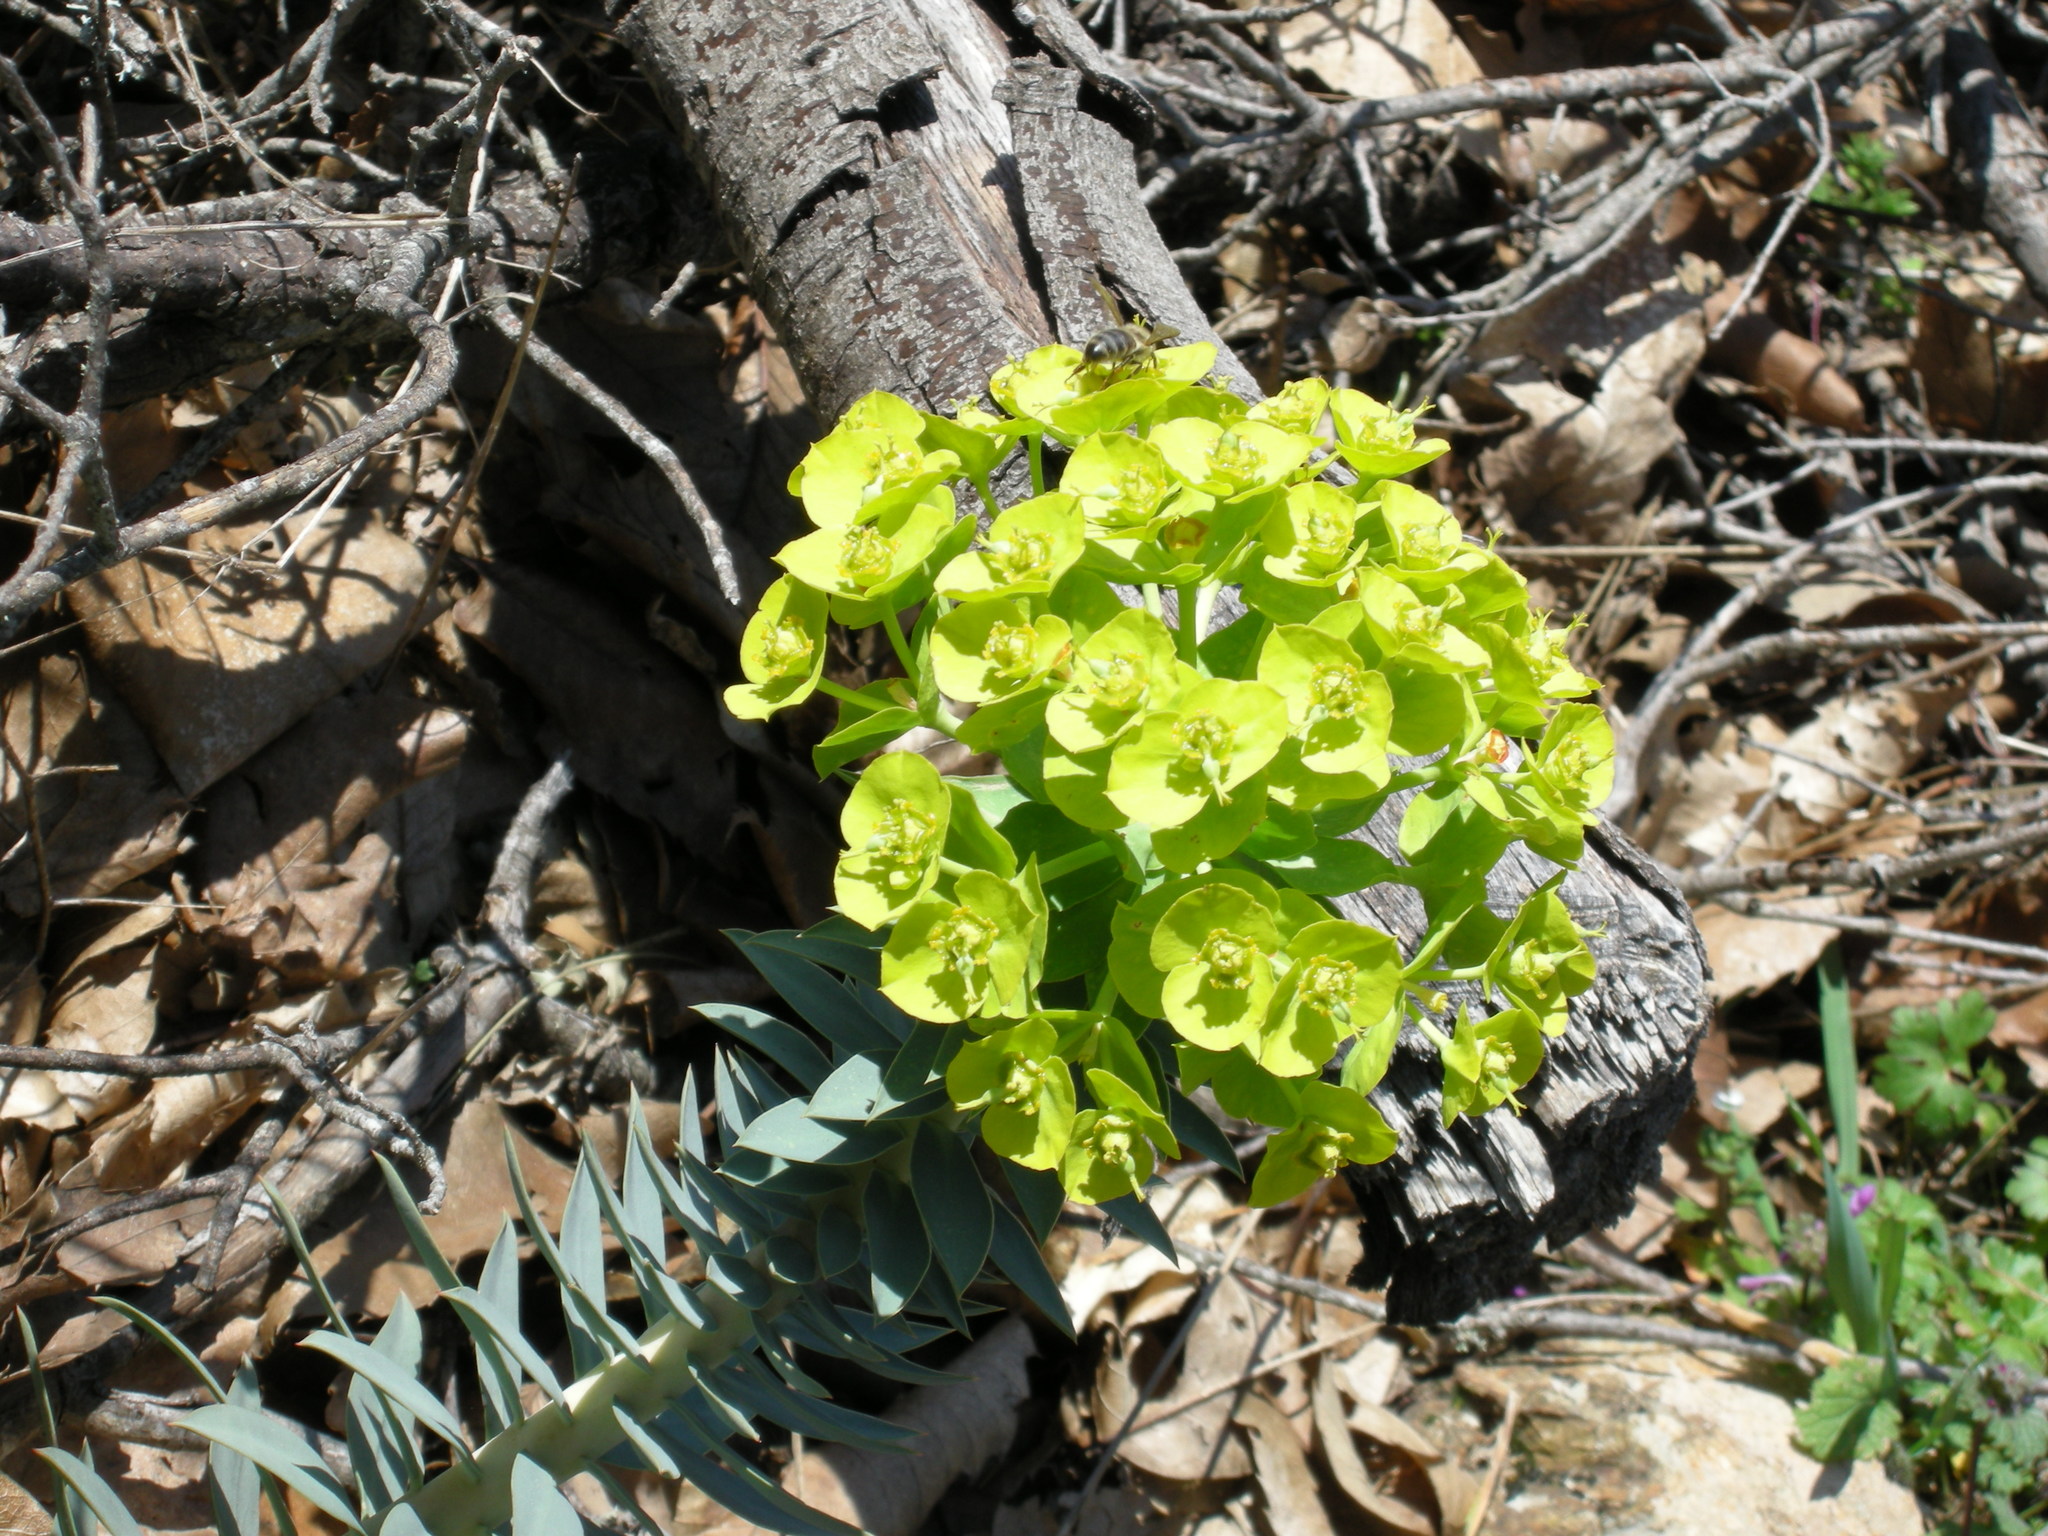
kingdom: Plantae
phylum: Tracheophyta
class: Magnoliopsida
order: Malpighiales
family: Euphorbiaceae
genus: Euphorbia
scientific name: Euphorbia myrsinites
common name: Myrtle spurge
